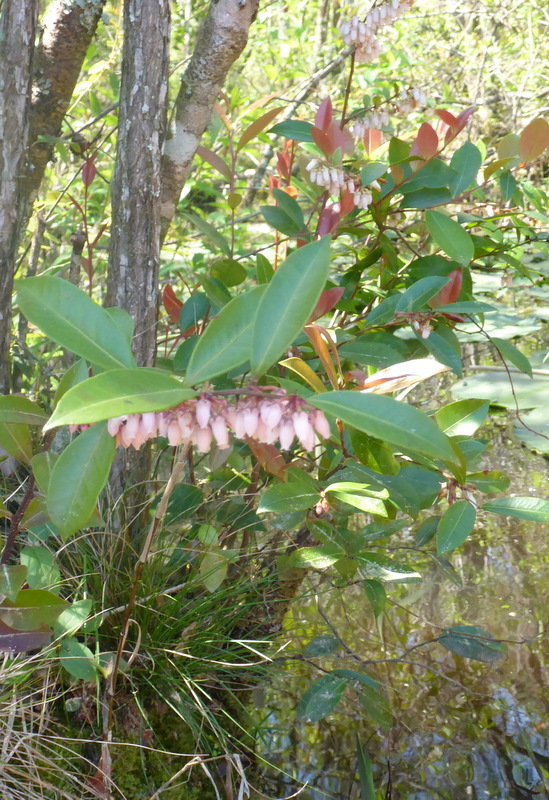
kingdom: Plantae
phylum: Tracheophyta
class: Magnoliopsida
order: Ericales
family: Ericaceae
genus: Lyonia
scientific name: Lyonia lucida
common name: Fetterbush
